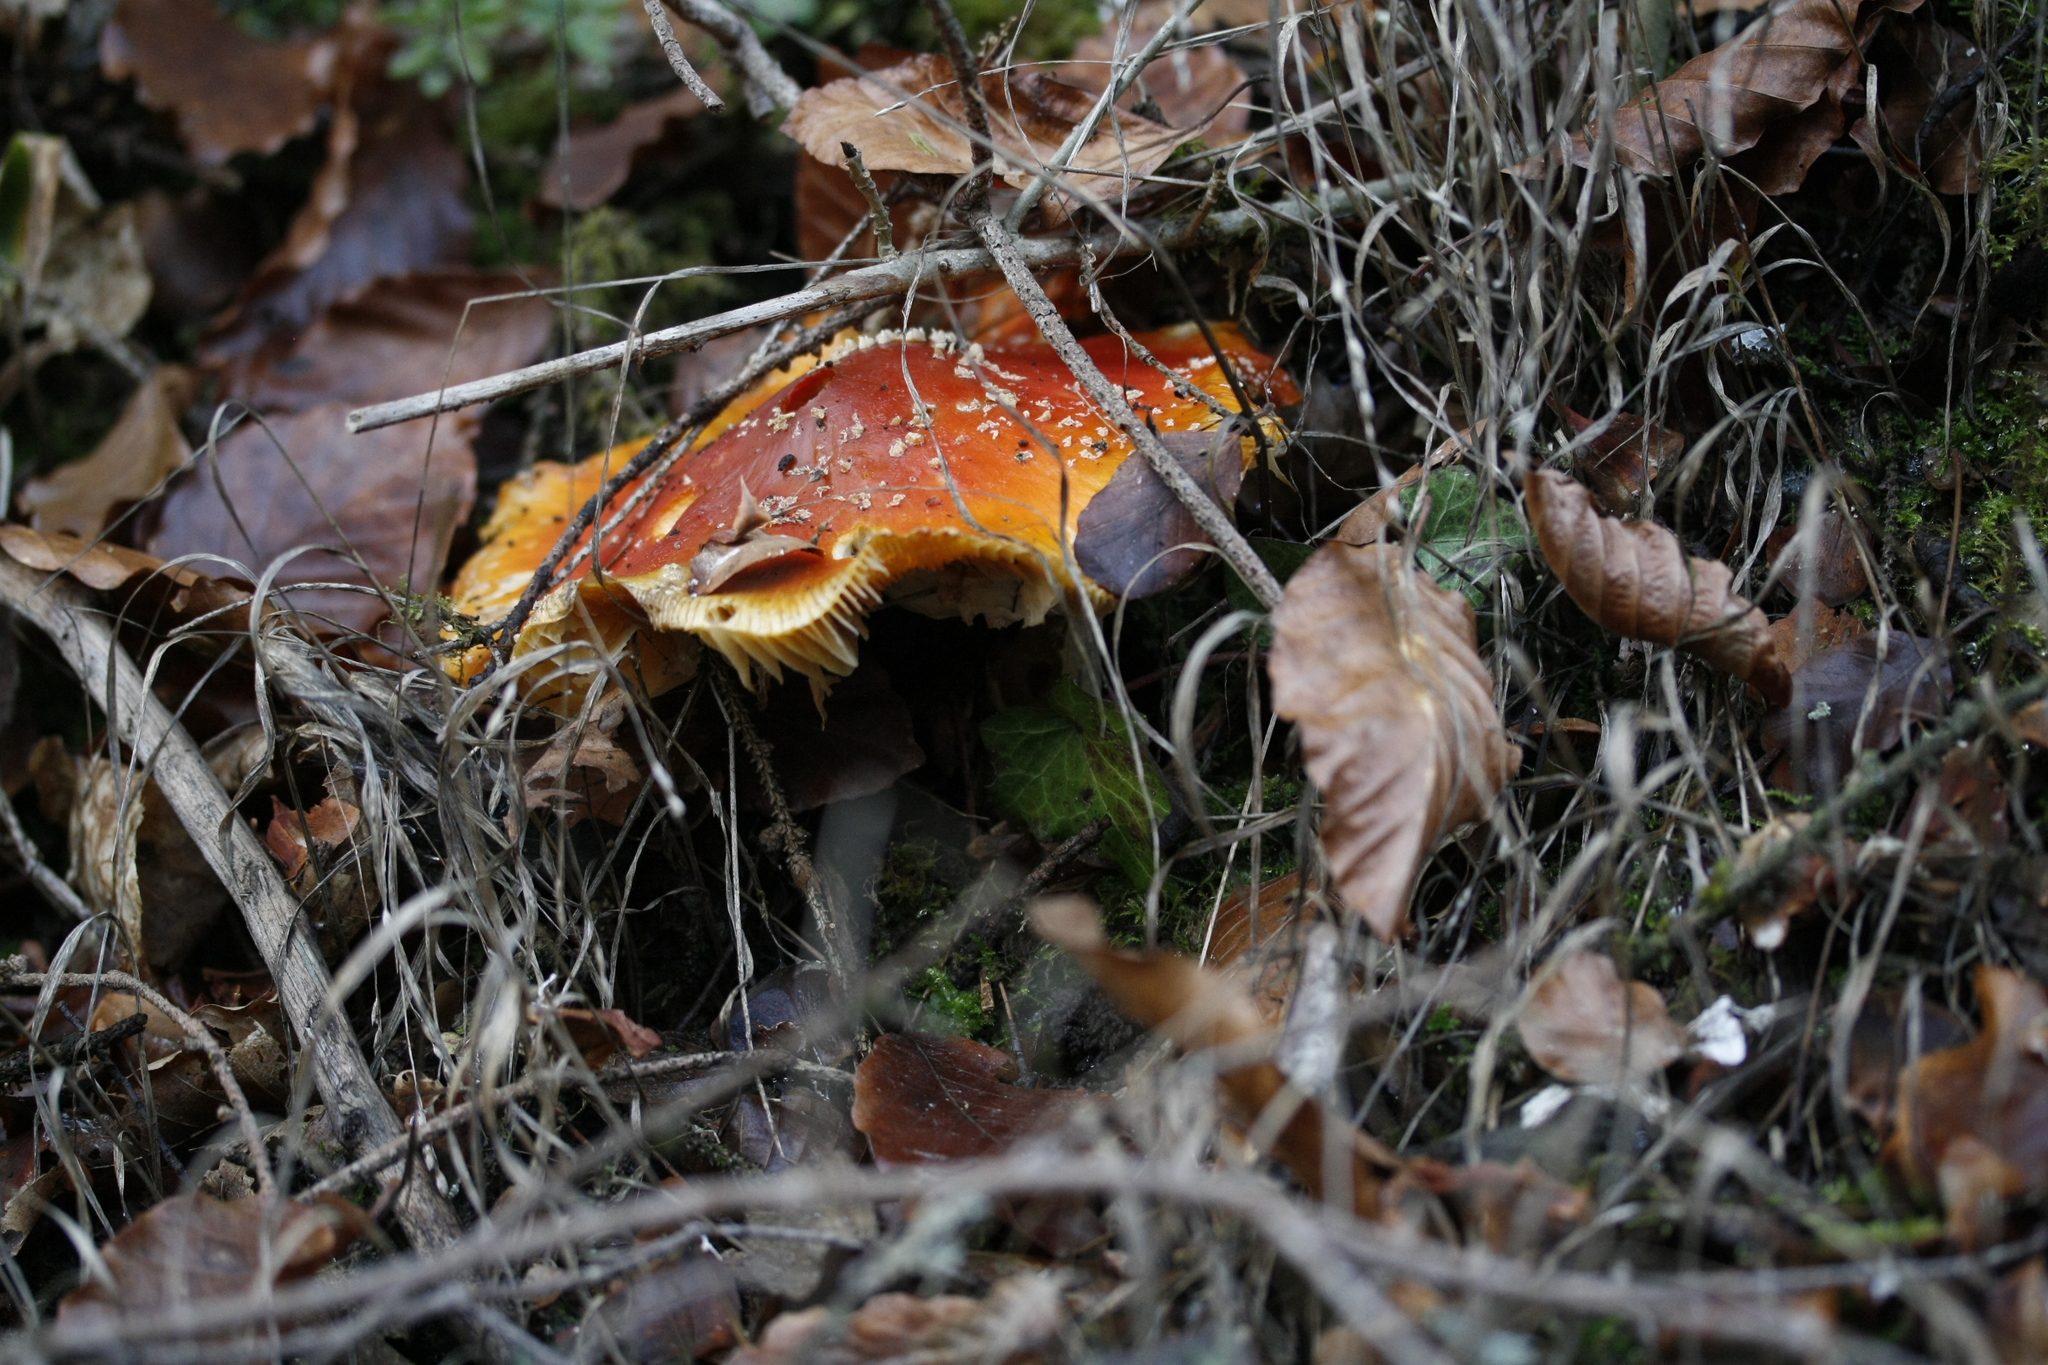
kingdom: Fungi
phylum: Basidiomycota
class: Agaricomycetes
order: Agaricales
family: Amanitaceae
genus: Amanita
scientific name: Amanita muscaria
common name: Fly agaric
